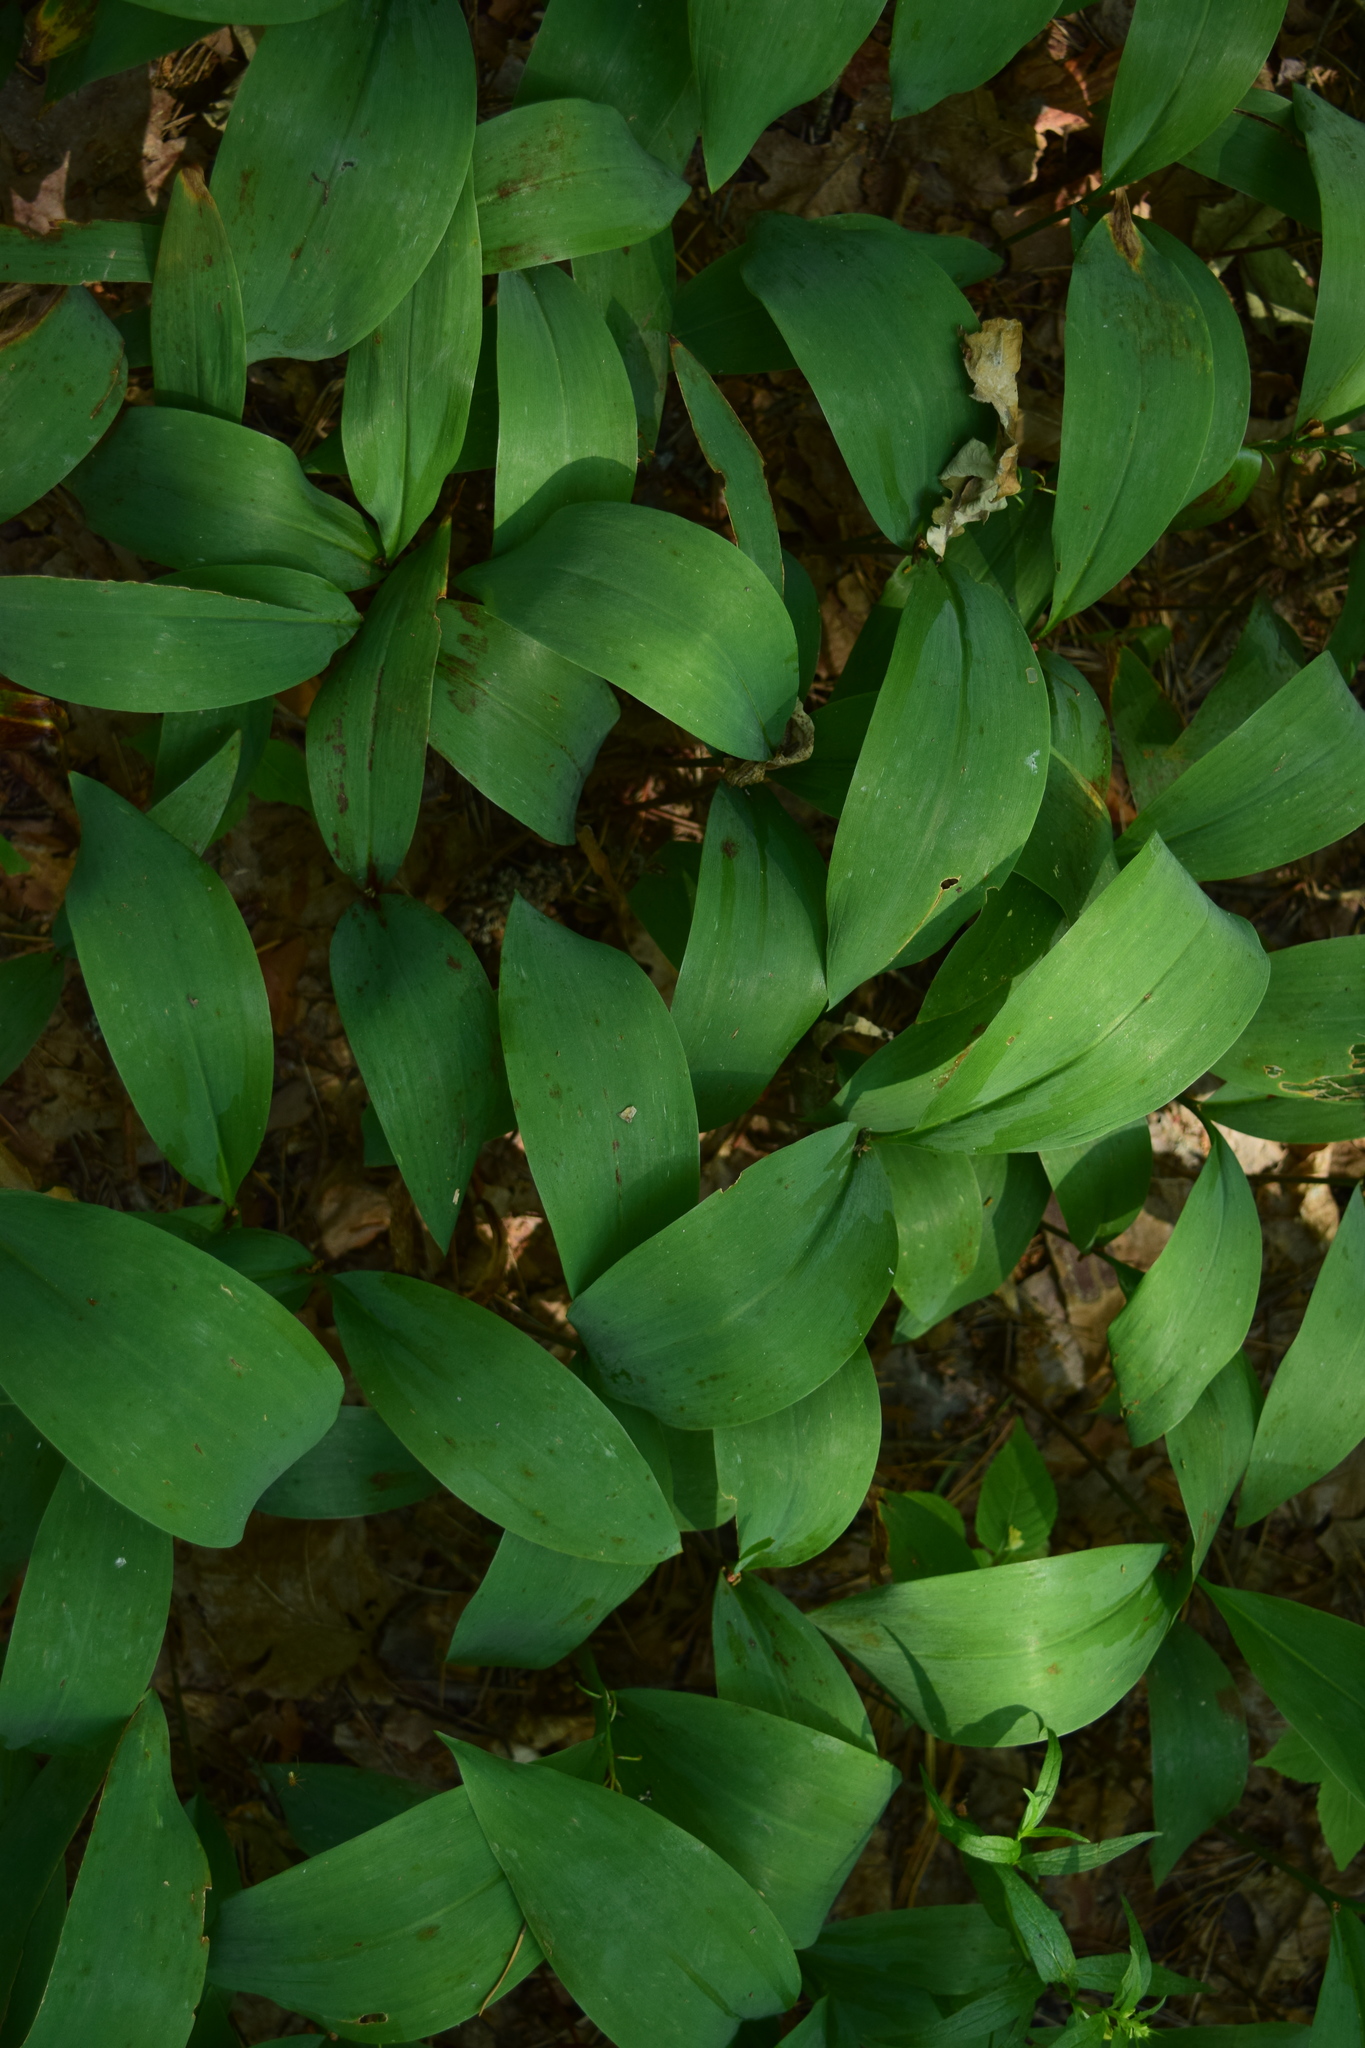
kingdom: Plantae
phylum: Tracheophyta
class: Liliopsida
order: Asparagales
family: Asparagaceae
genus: Convallaria
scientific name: Convallaria majalis
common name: Lily-of-the-valley
